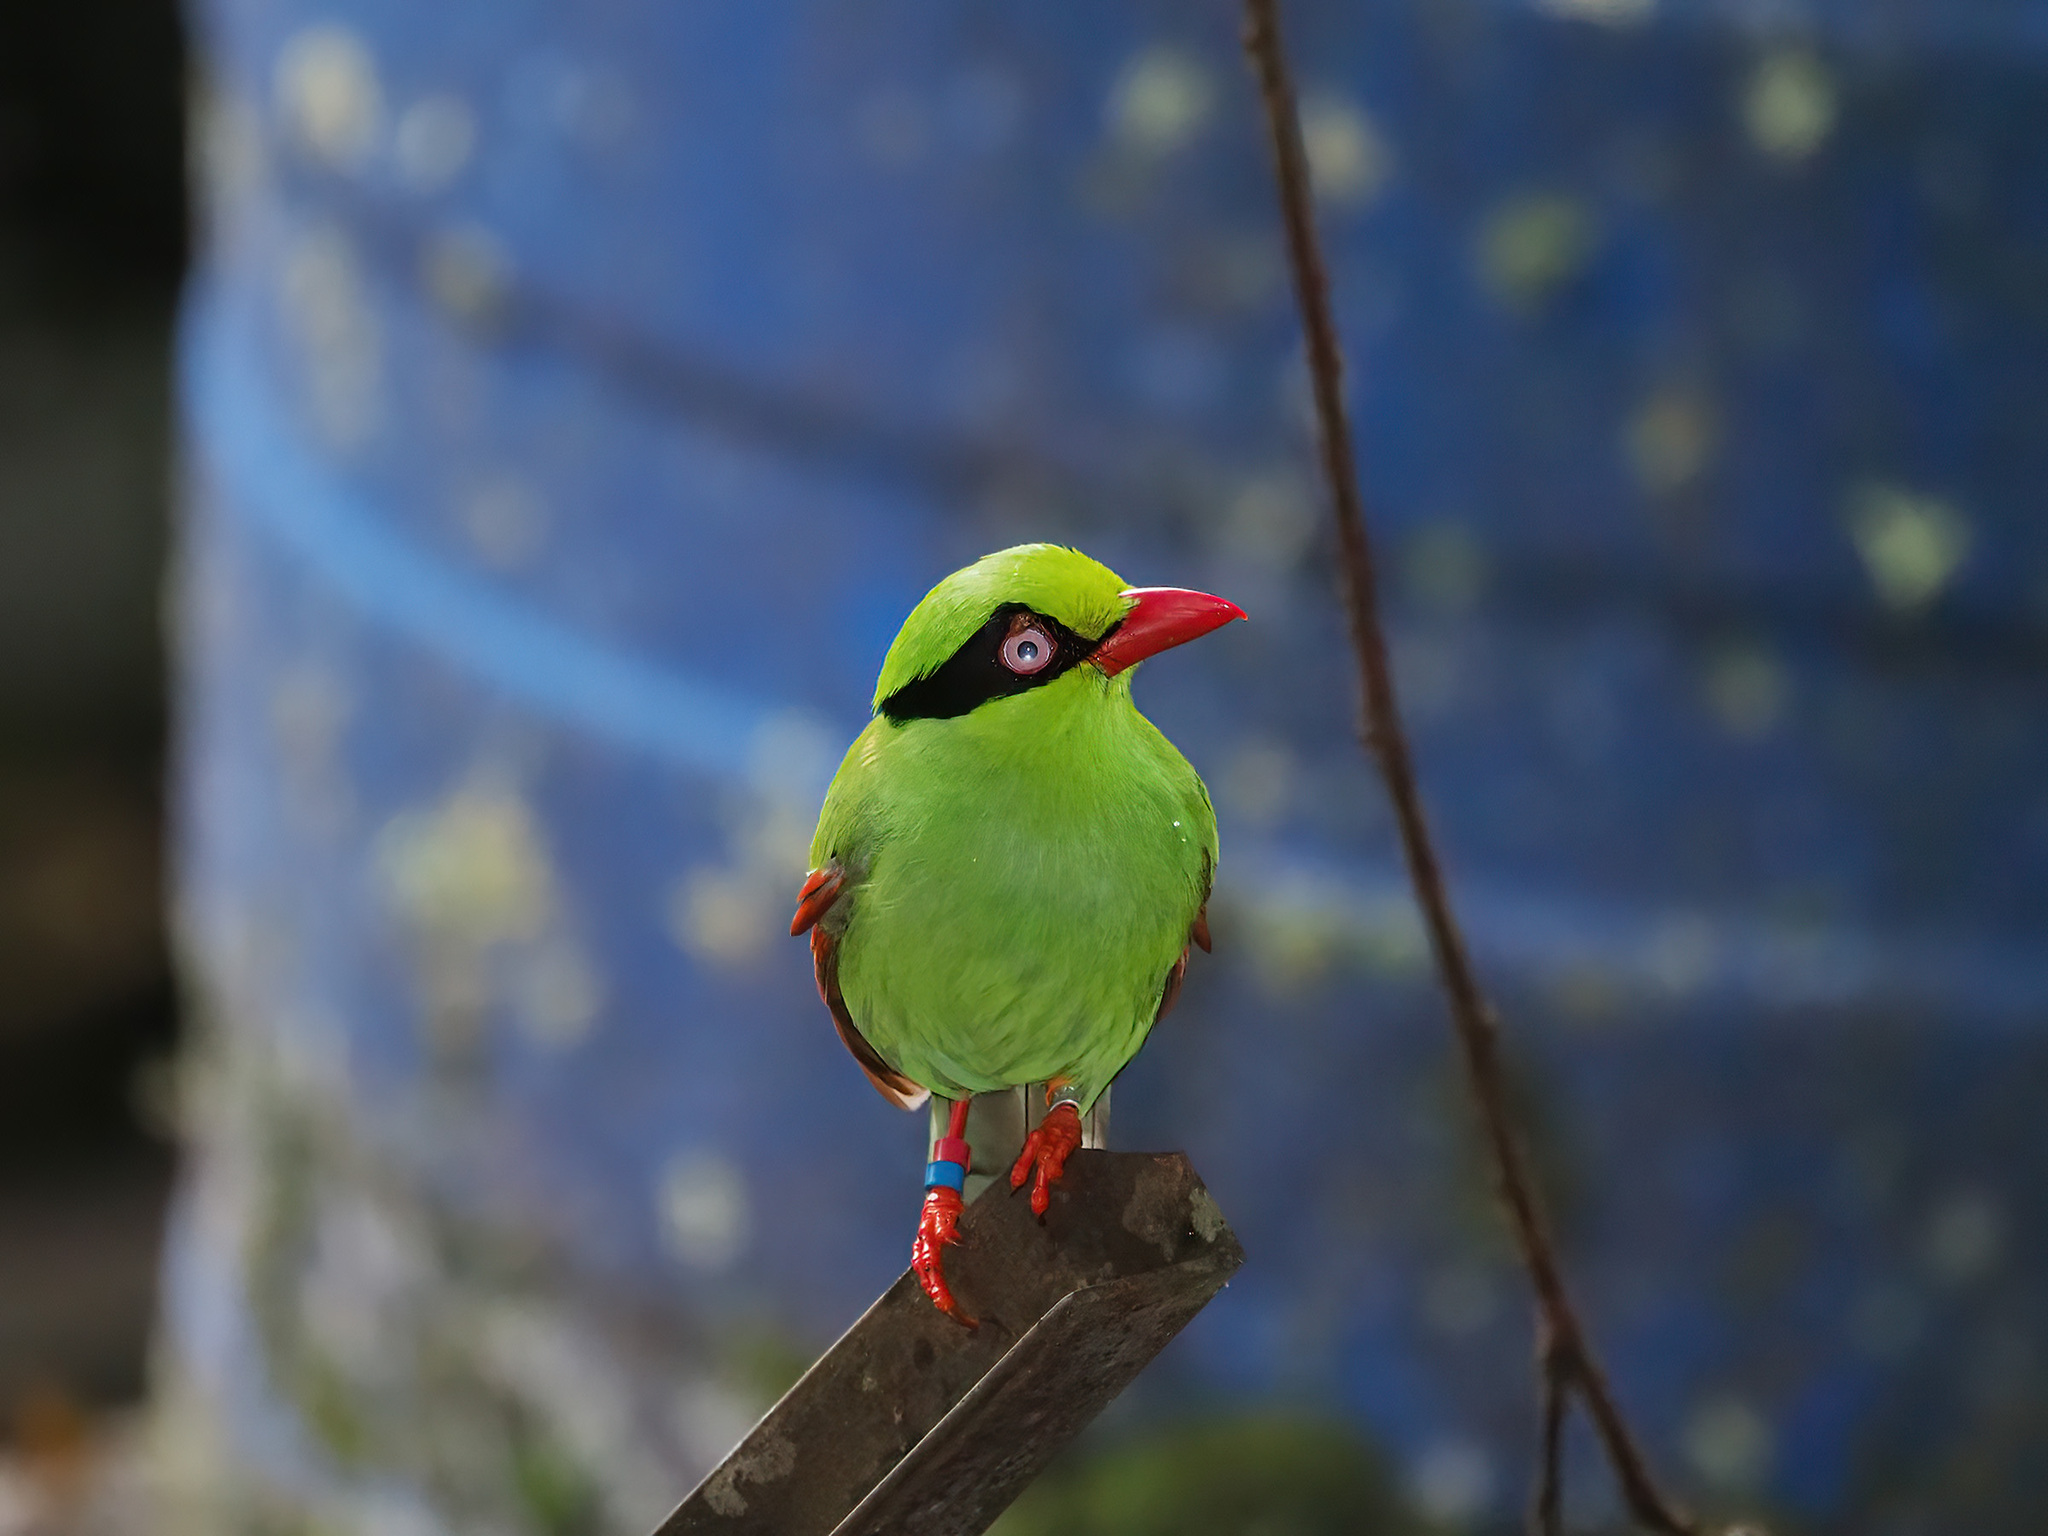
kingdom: Animalia
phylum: Chordata
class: Aves
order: Passeriformes
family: Corvidae
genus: Cissa
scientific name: Cissa jefferyi
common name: Bornean green magpie
